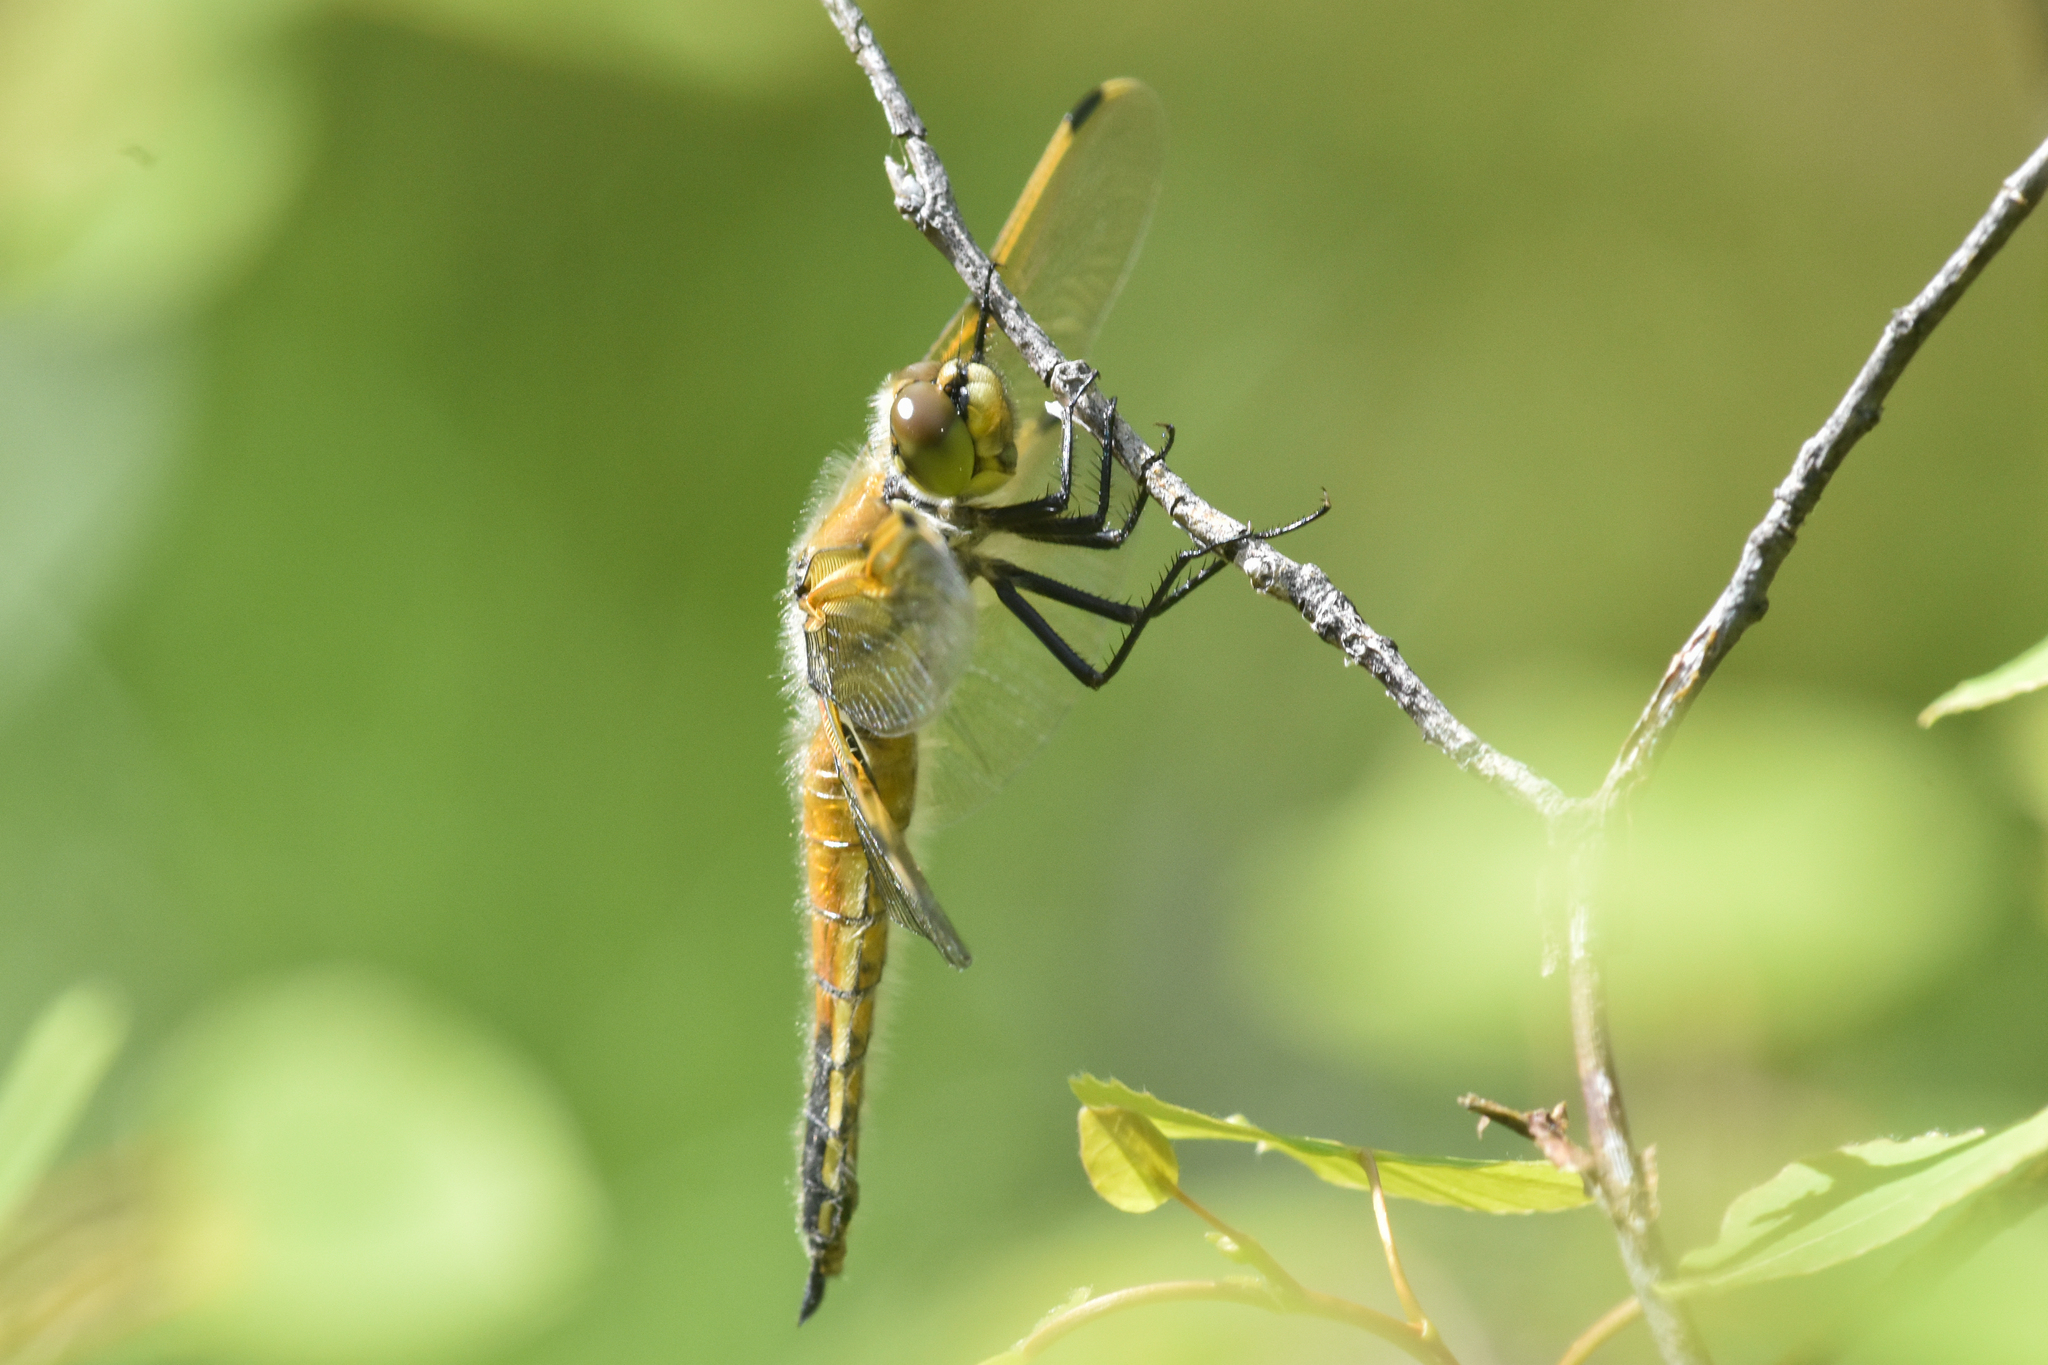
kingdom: Animalia
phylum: Arthropoda
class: Insecta
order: Odonata
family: Libellulidae
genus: Libellula
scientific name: Libellula quadrimaculata
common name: Four-spotted chaser
